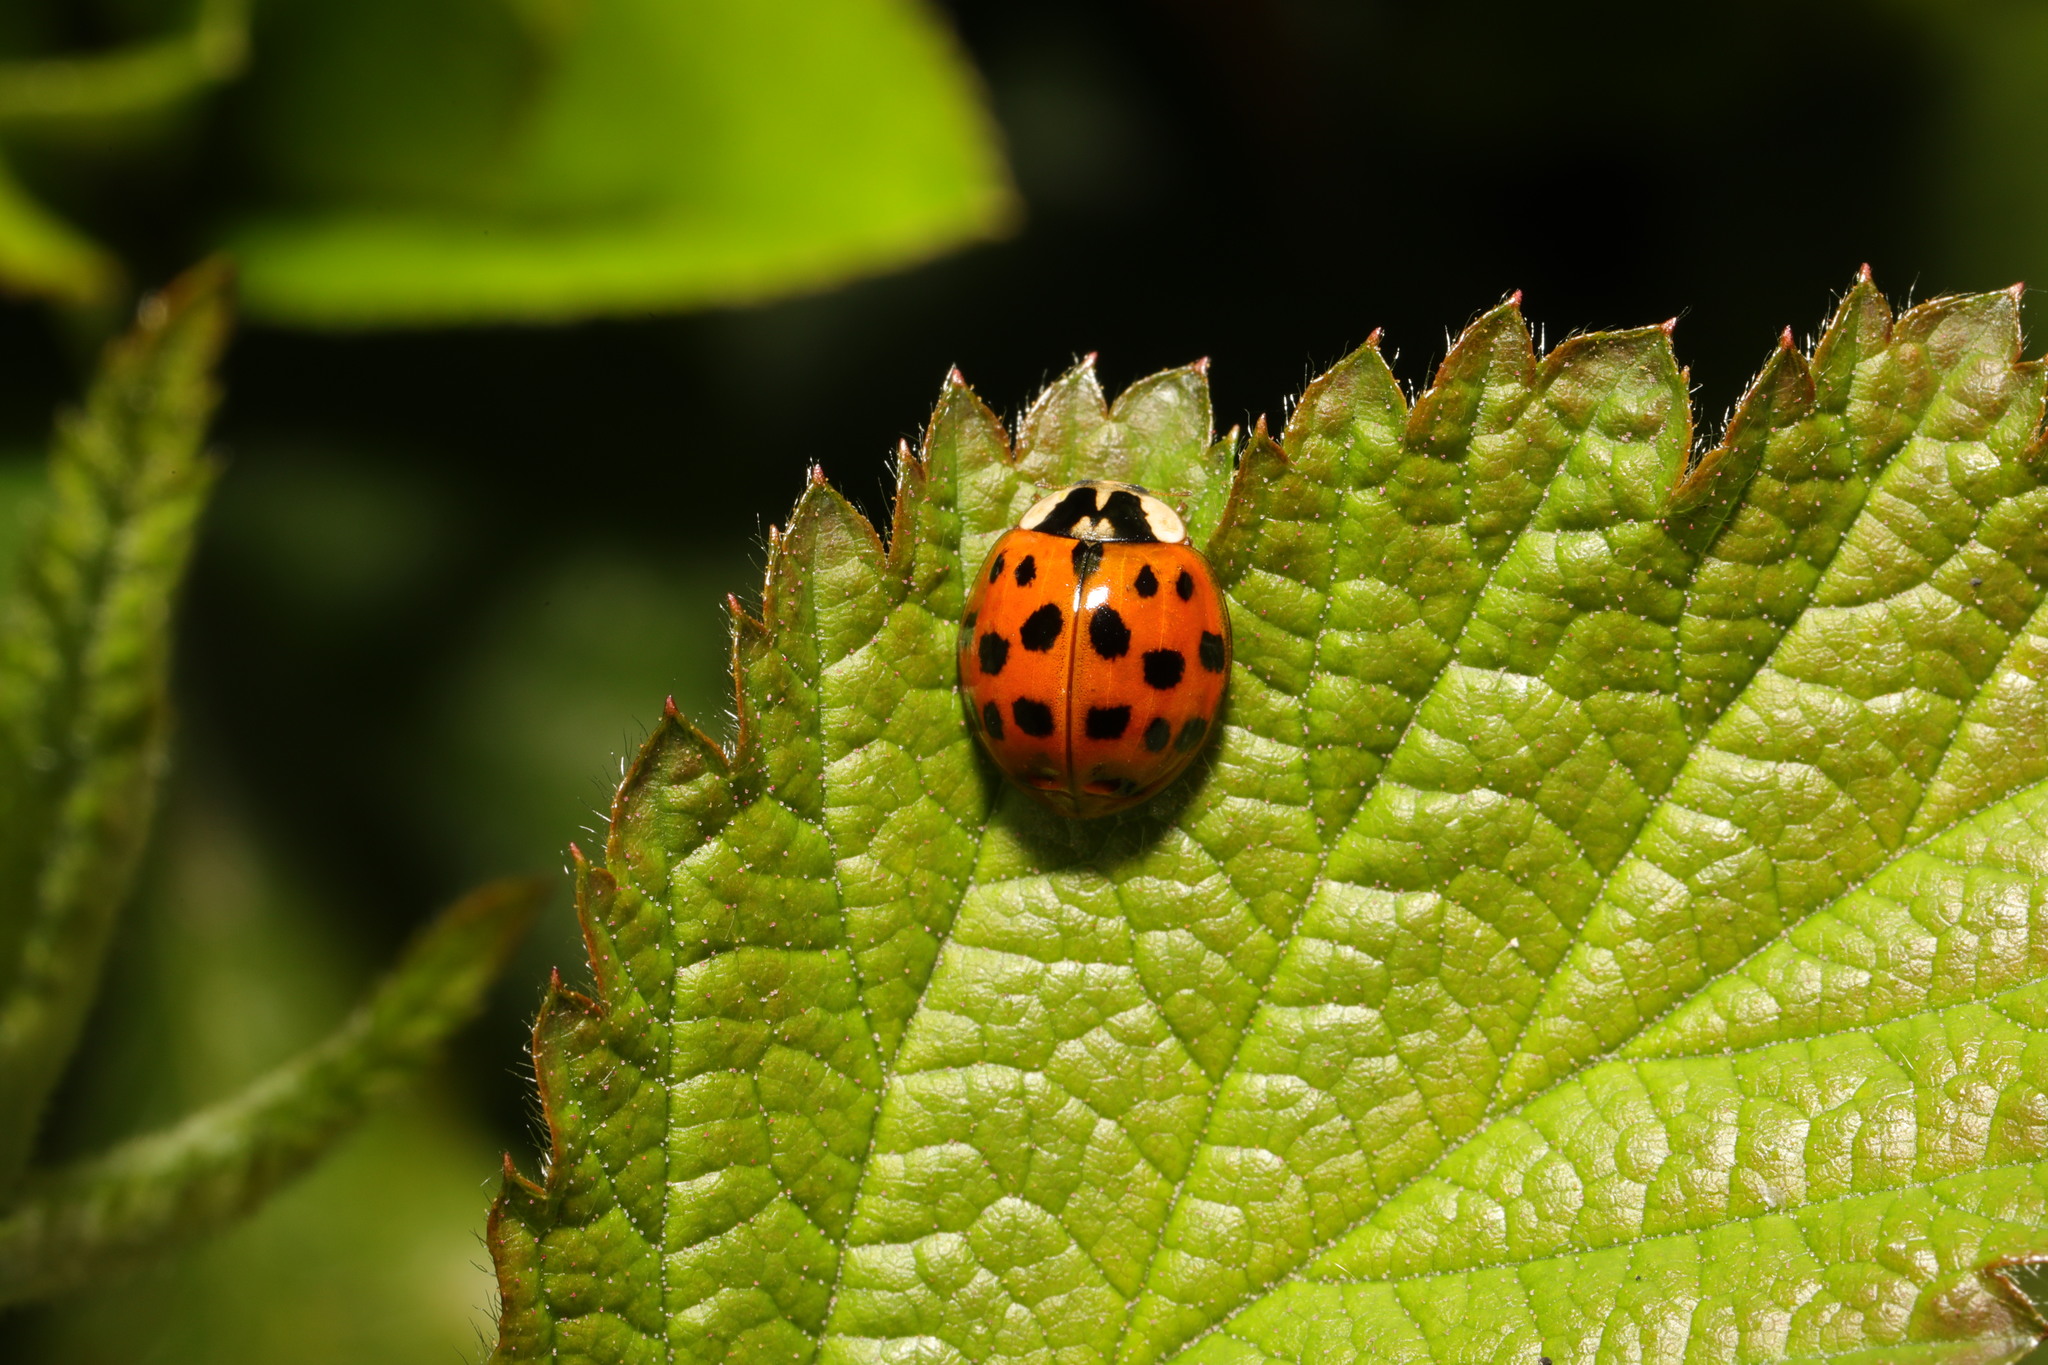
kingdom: Animalia
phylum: Arthropoda
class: Insecta
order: Coleoptera
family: Coccinellidae
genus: Harmonia
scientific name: Harmonia axyridis
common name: Harlequin ladybird
